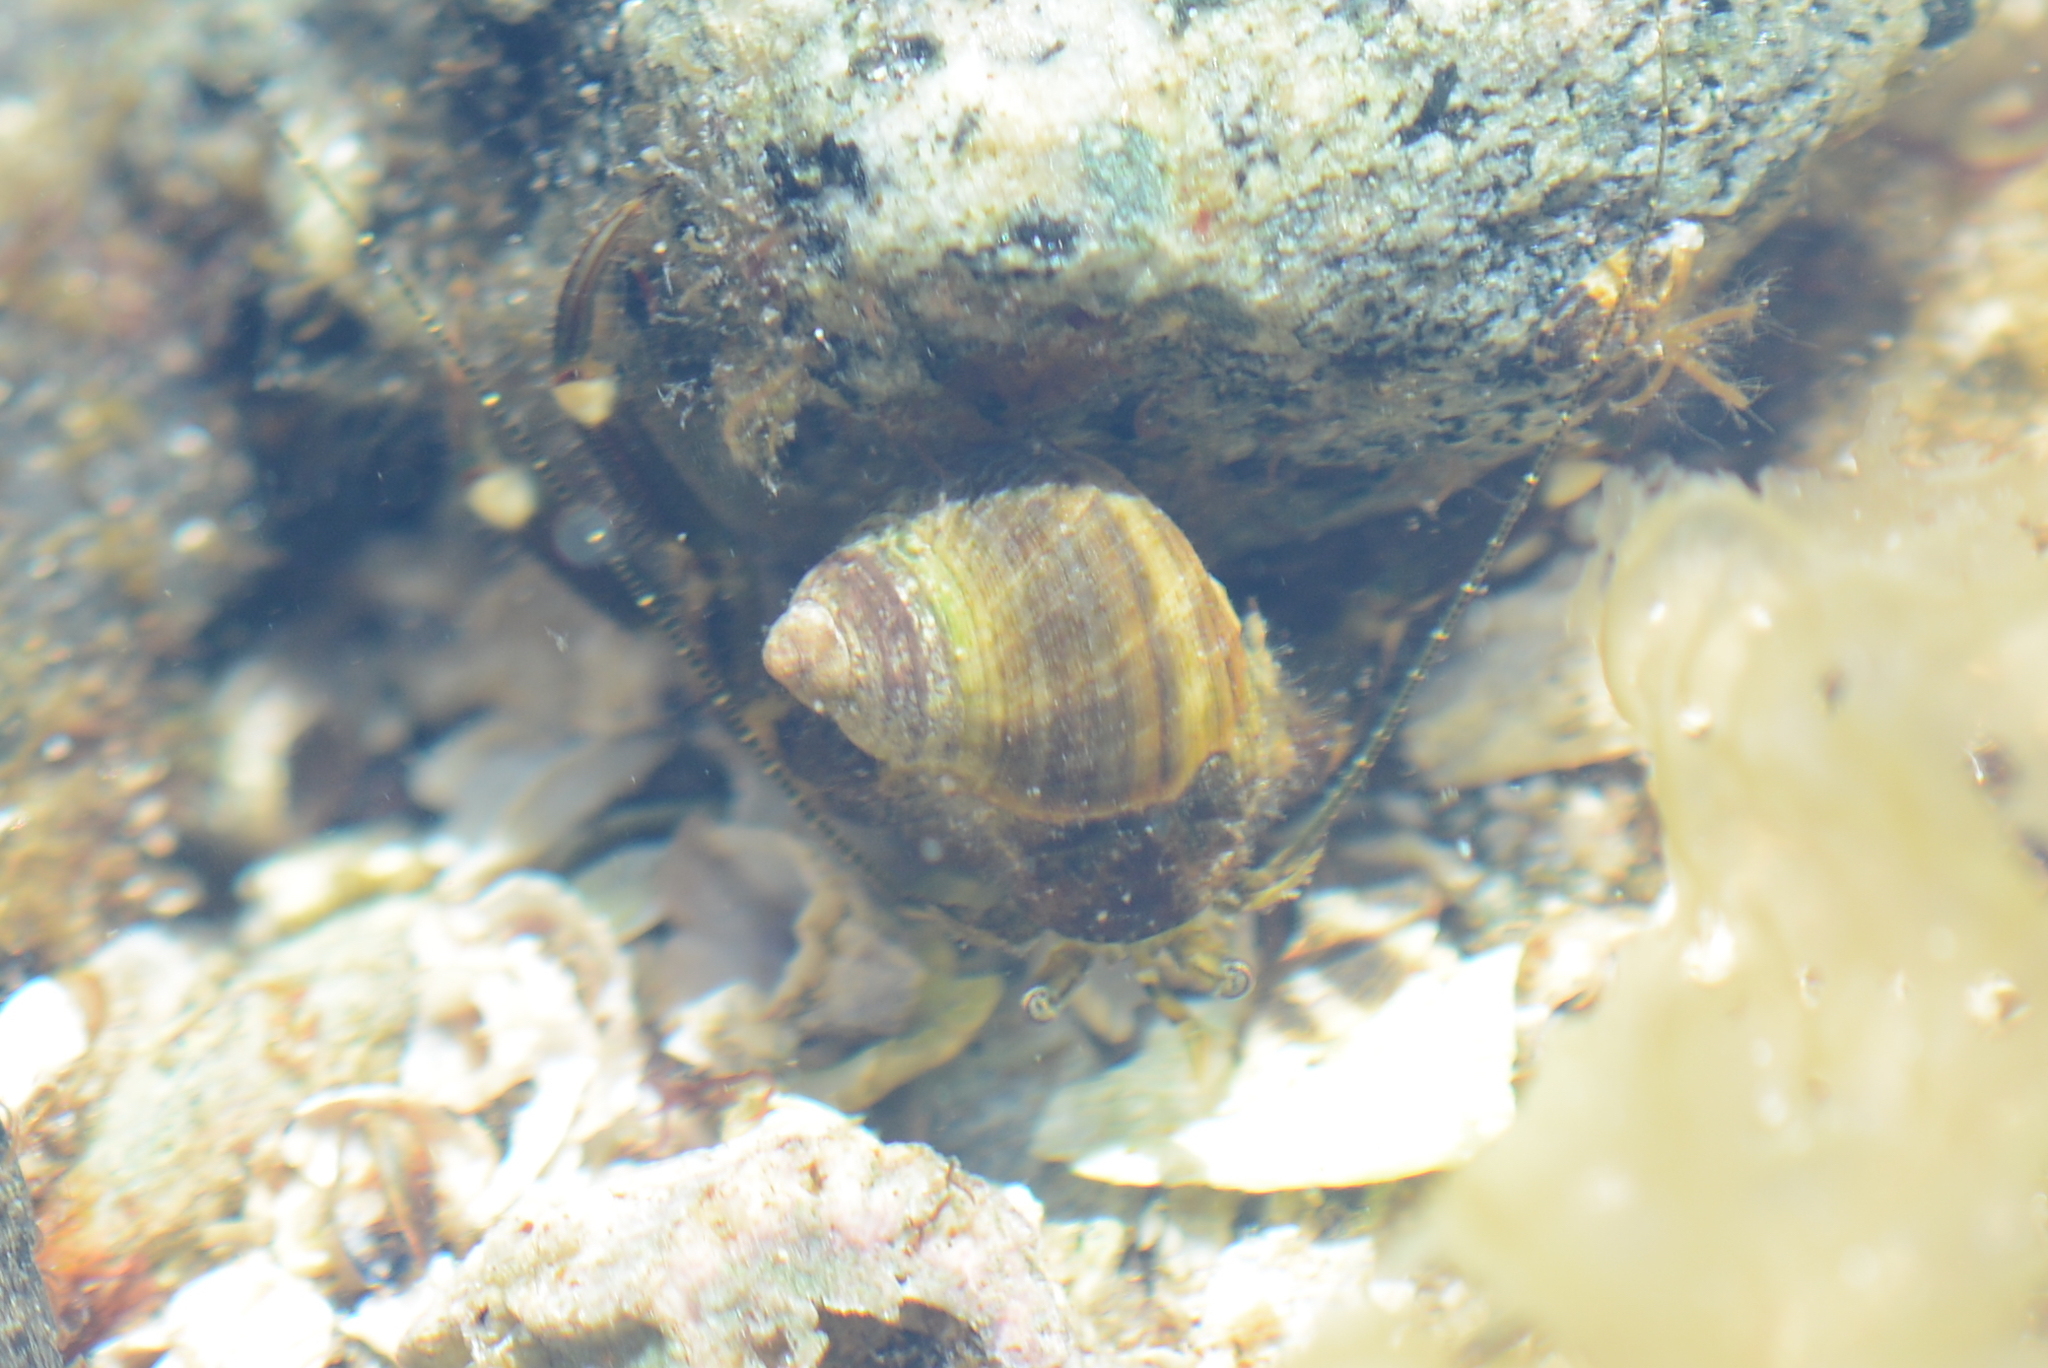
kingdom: Animalia
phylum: Arthropoda
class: Malacostraca
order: Decapoda
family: Paguridae
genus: Pagurus
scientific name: Pagurus hirsutiusculus
